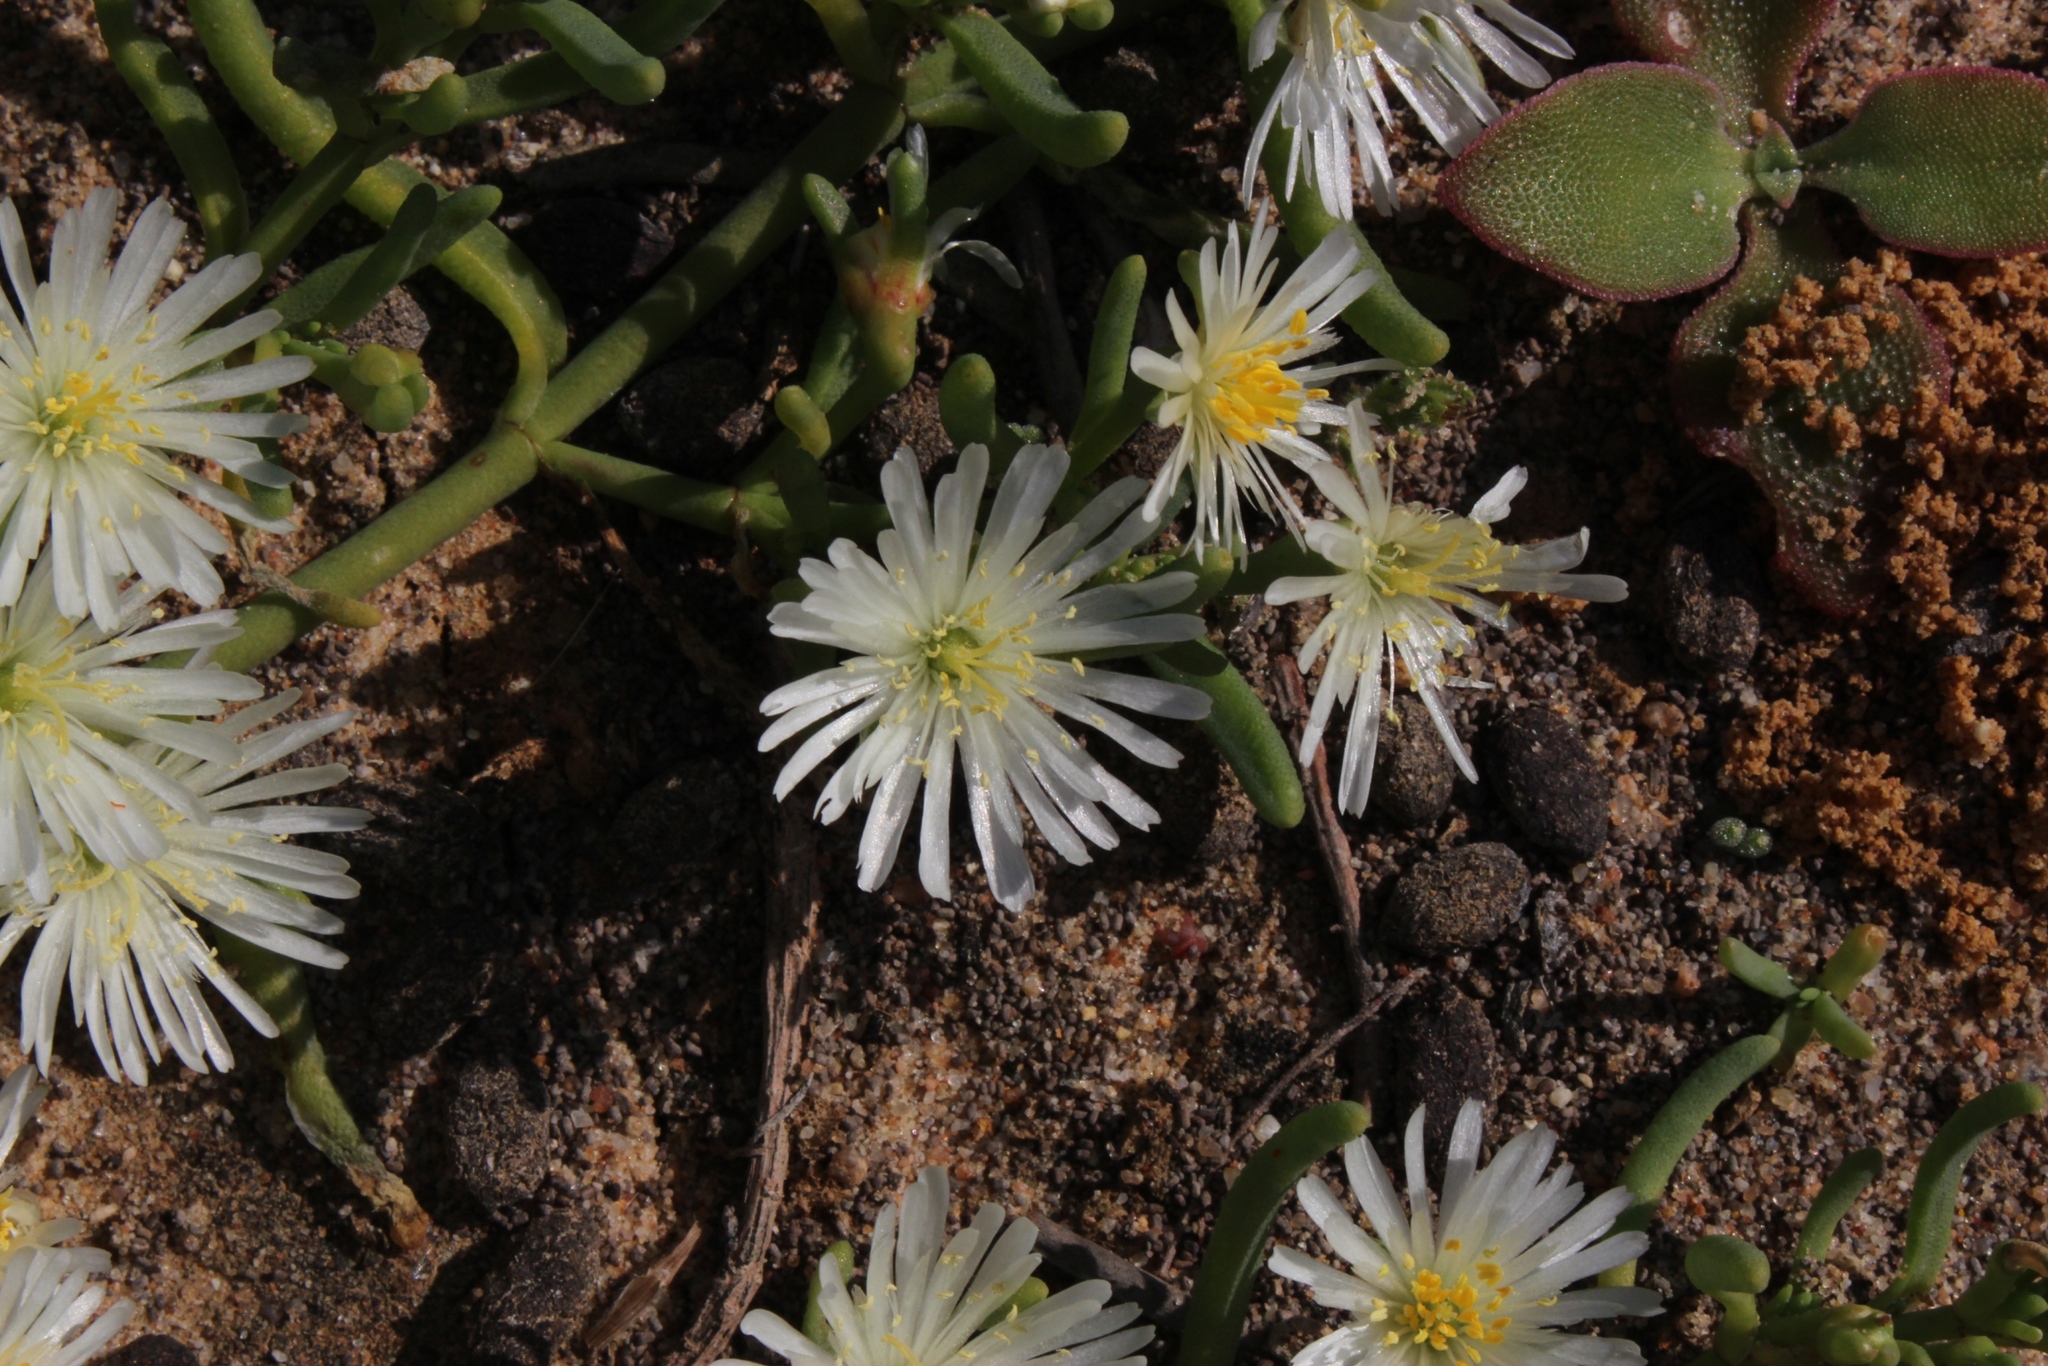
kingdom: Plantae
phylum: Tracheophyta
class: Magnoliopsida
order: Caryophyllales
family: Aizoaceae
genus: Mesembryanthemum
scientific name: Mesembryanthemum rapaceum
